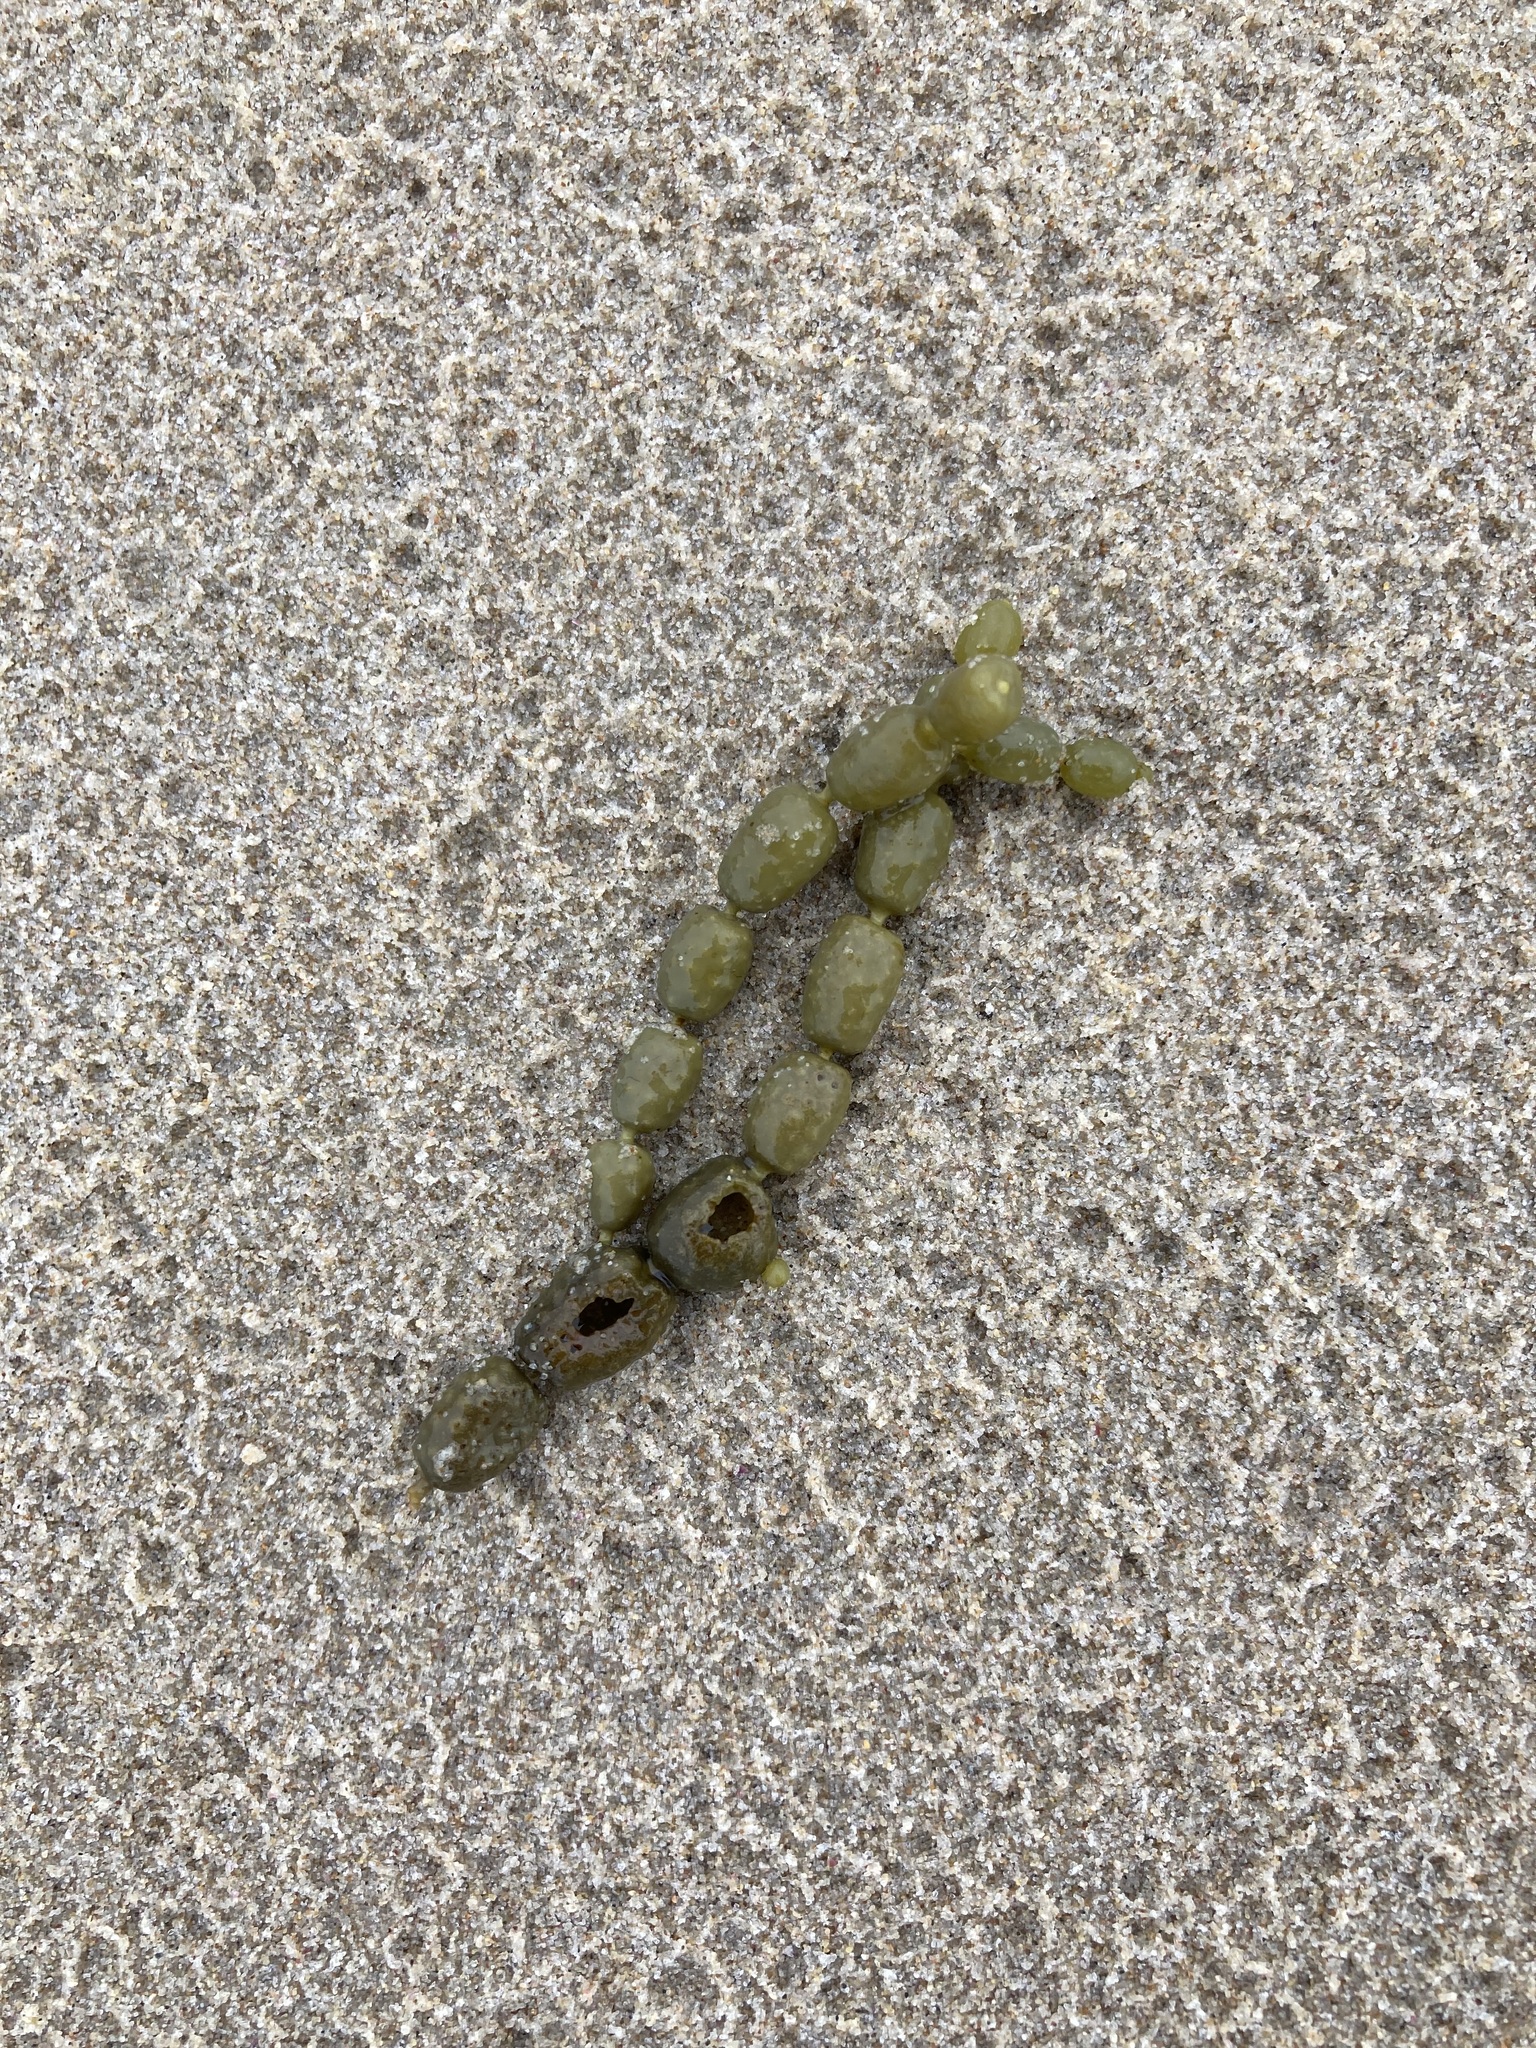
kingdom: Chromista
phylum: Ochrophyta
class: Phaeophyceae
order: Fucales
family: Hormosiraceae
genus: Hormosira
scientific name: Hormosira banksii
